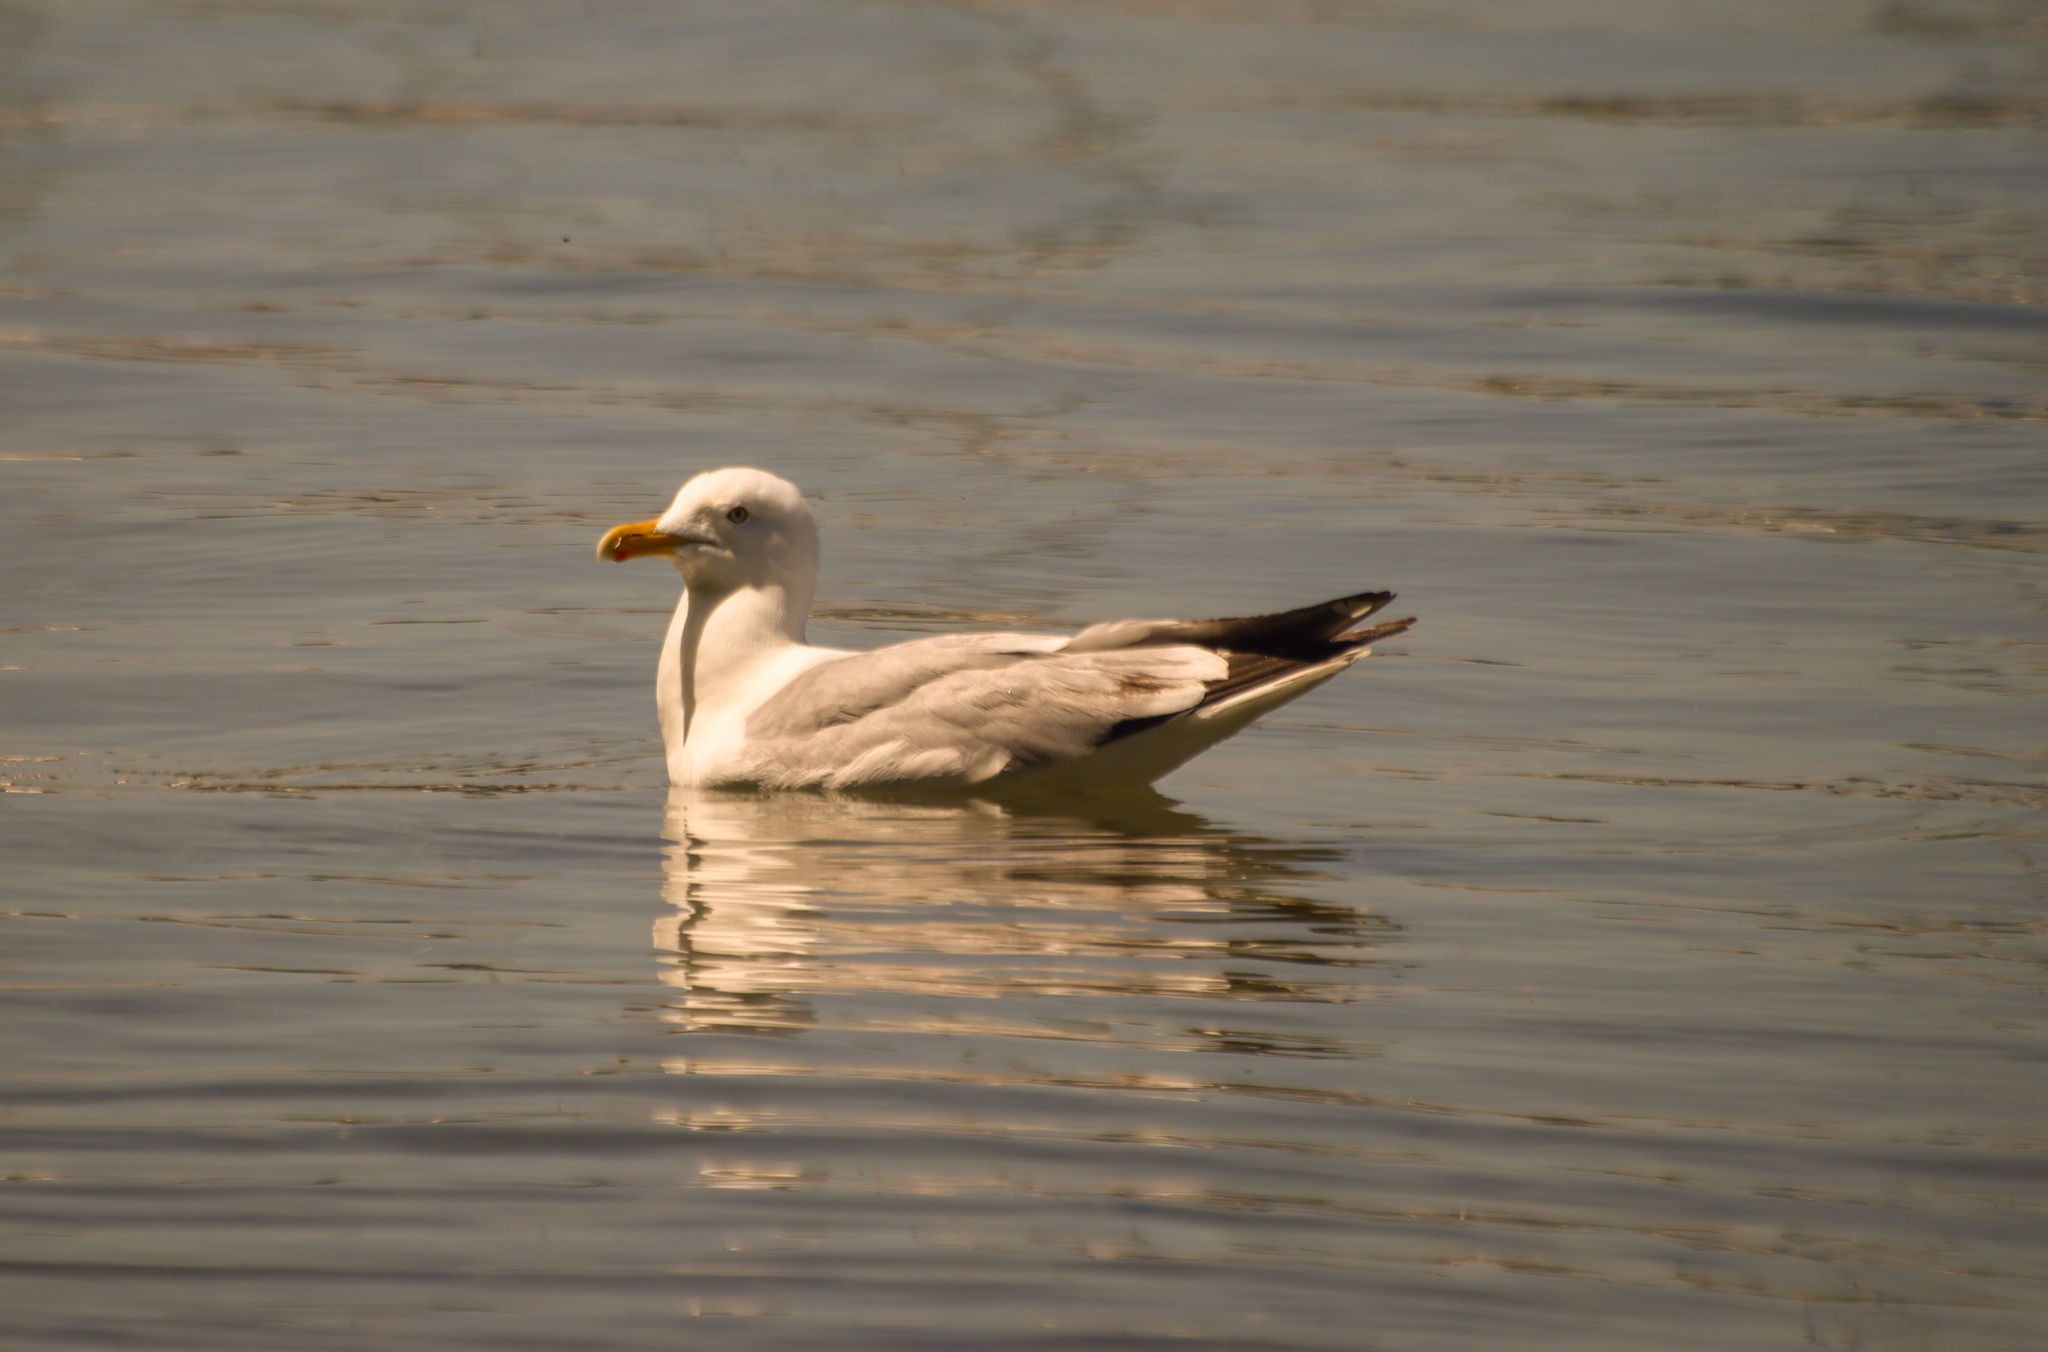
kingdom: Animalia
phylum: Chordata
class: Aves
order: Charadriiformes
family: Laridae
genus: Larus
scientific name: Larus argentatus
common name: Herring gull
